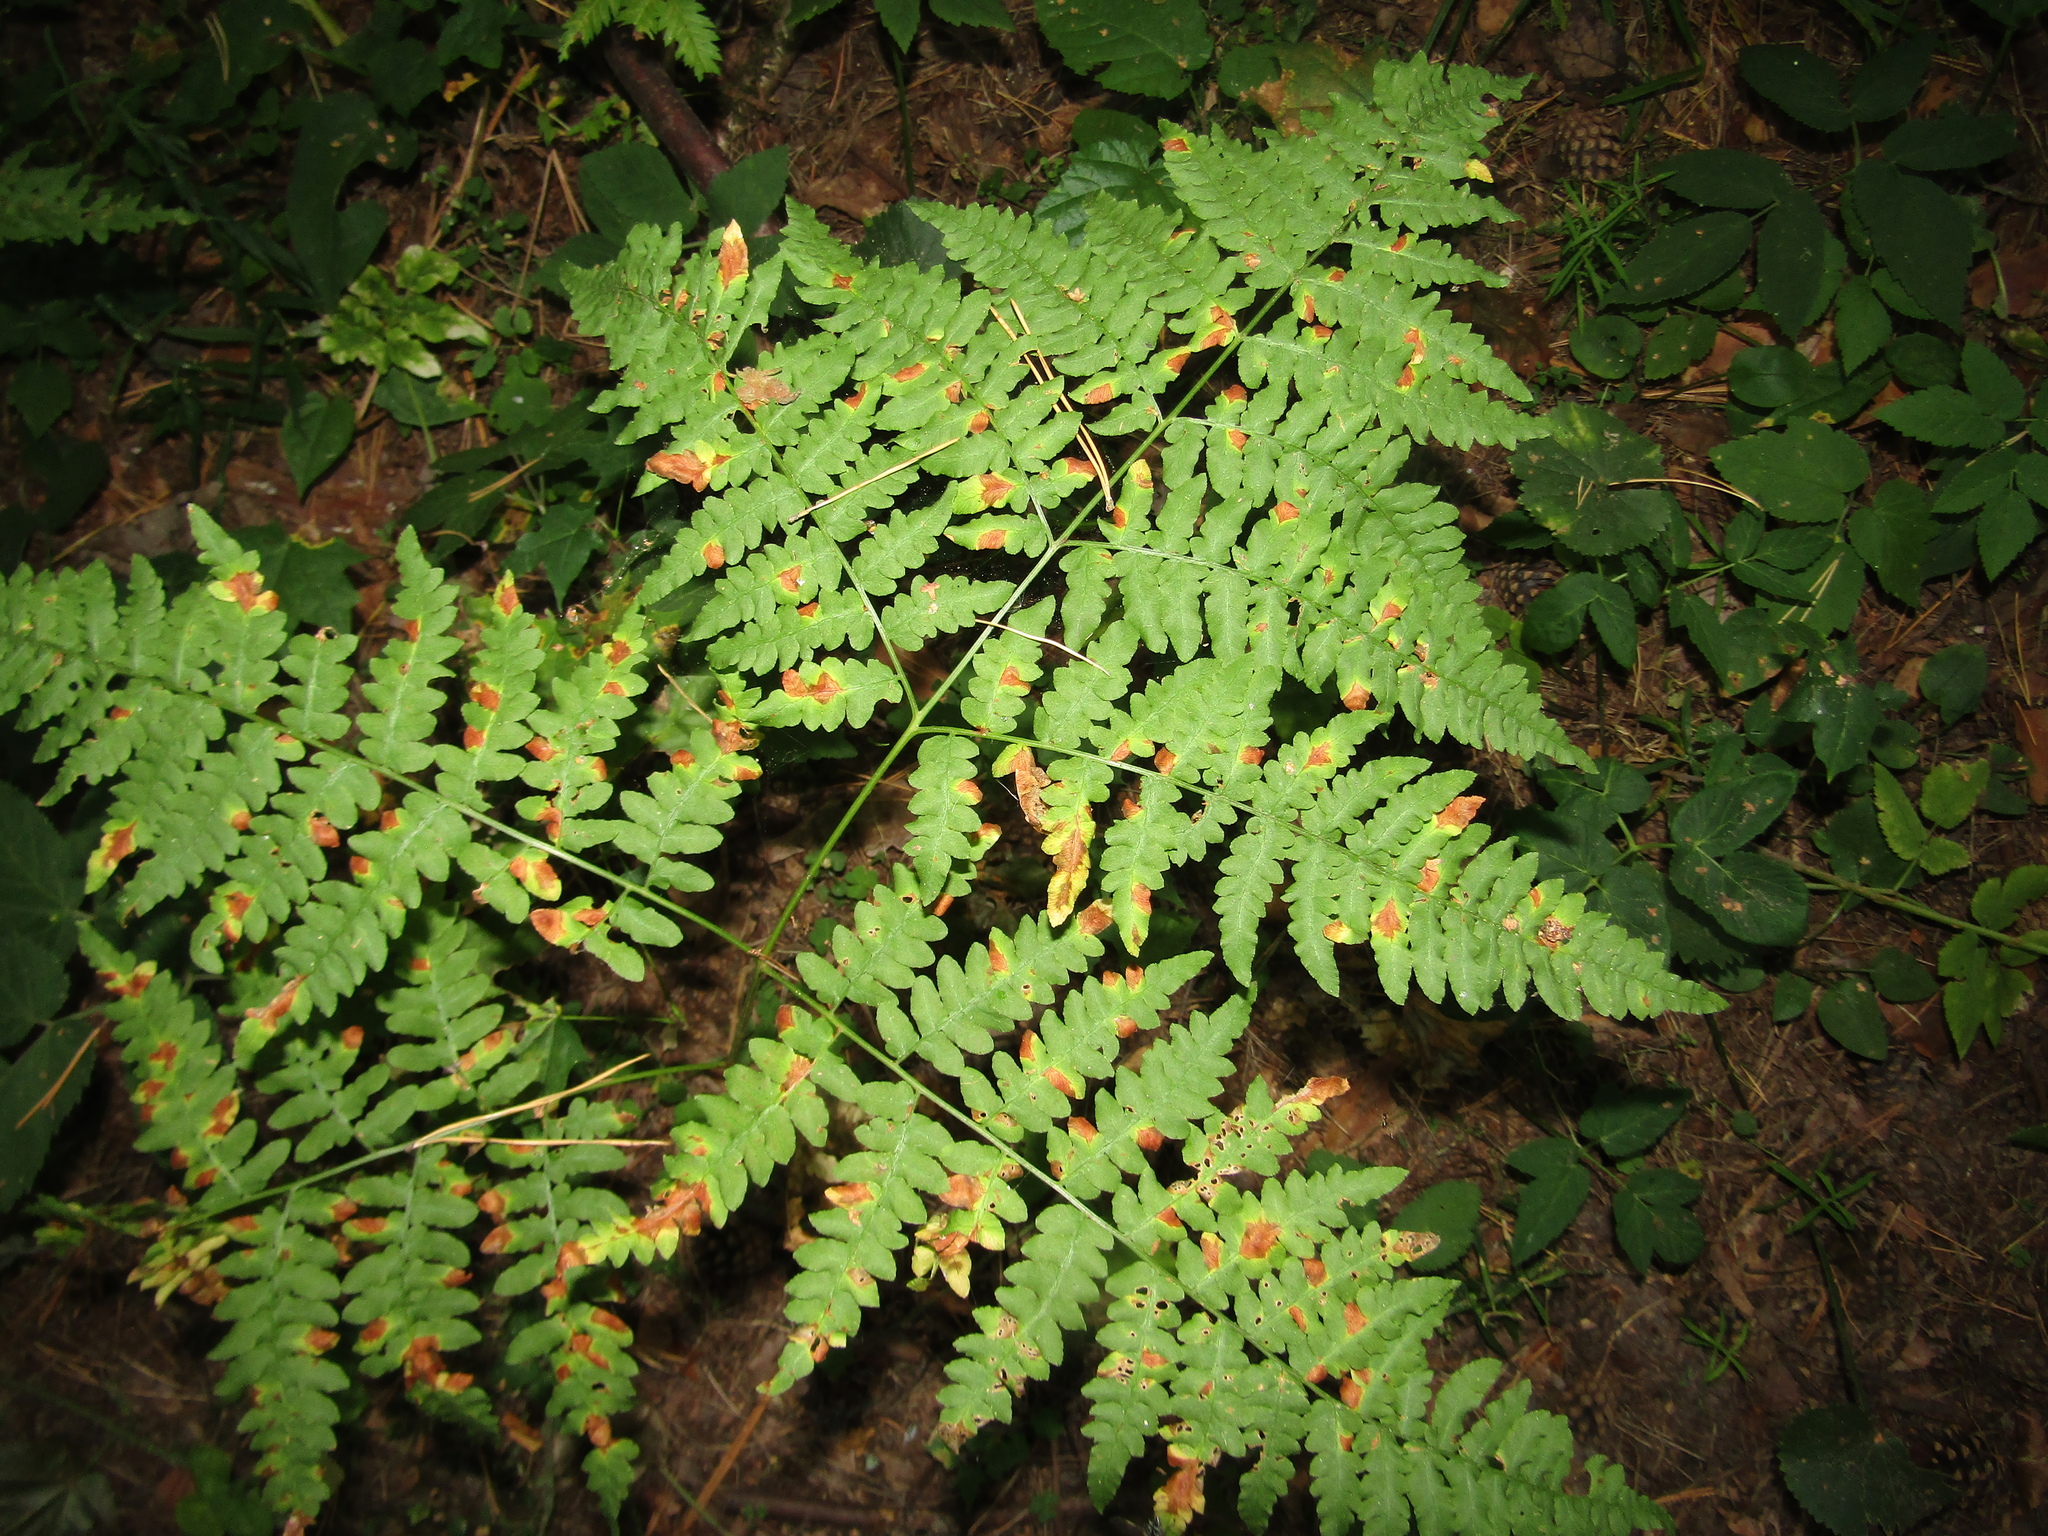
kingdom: Plantae
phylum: Tracheophyta
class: Polypodiopsida
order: Polypodiales
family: Dennstaedtiaceae
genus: Pteridium
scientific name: Pteridium aquilinum
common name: Bracken
